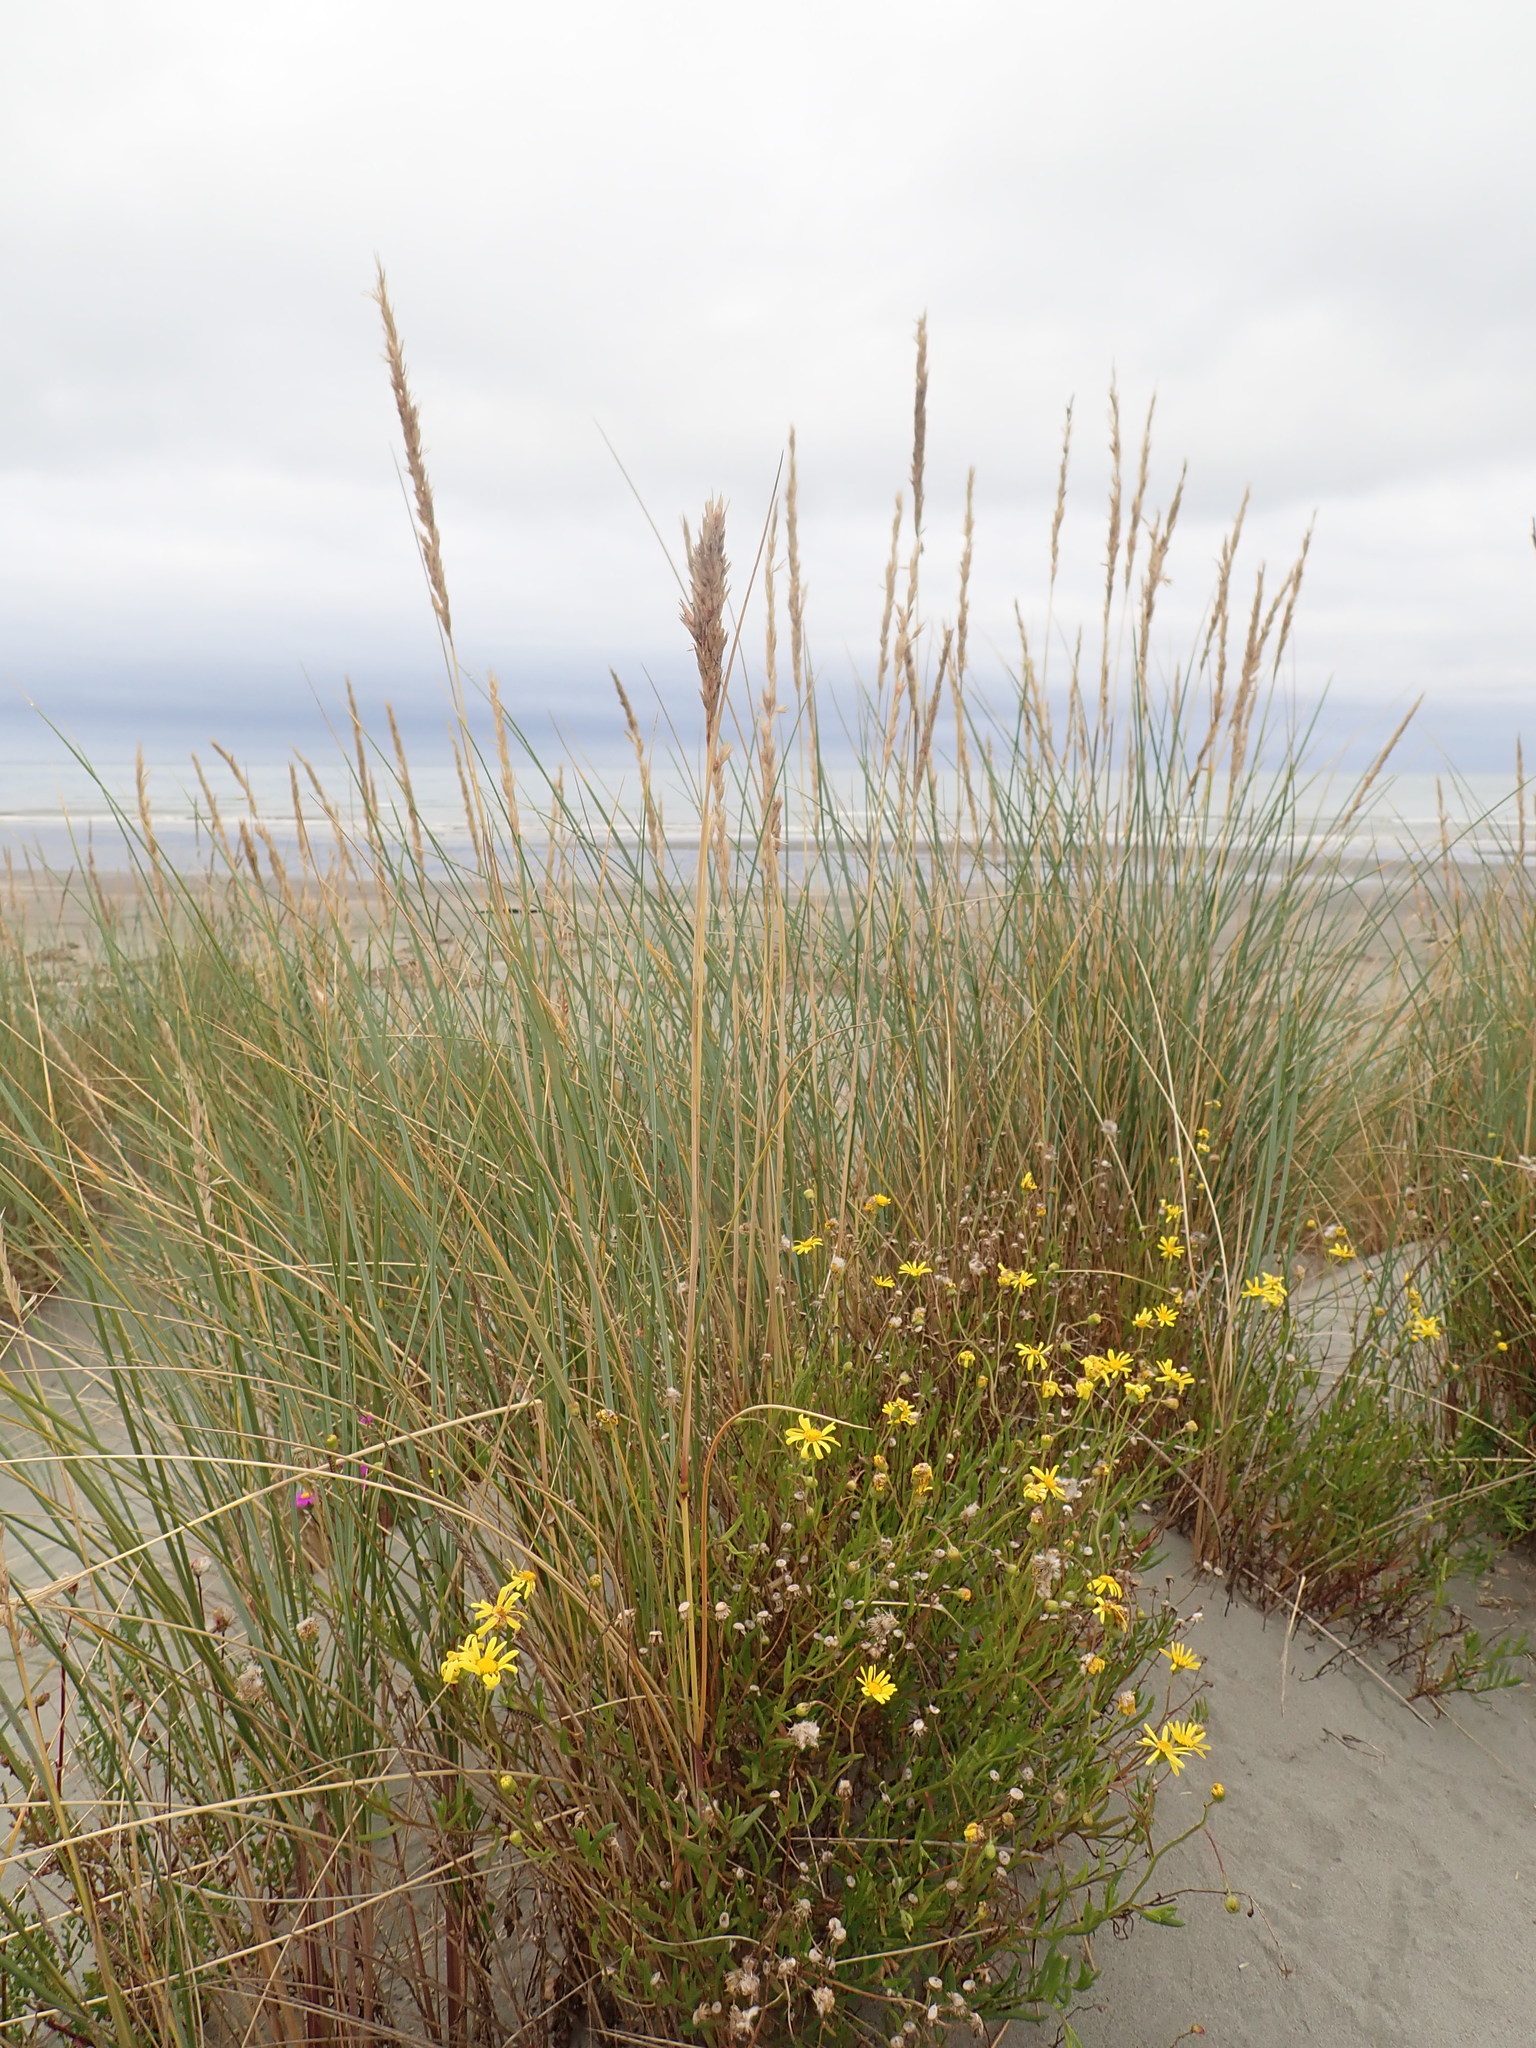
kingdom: Plantae
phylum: Tracheophyta
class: Liliopsida
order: Poales
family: Poaceae
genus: Calamagrostis
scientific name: Calamagrostis arenaria
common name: European beachgrass
